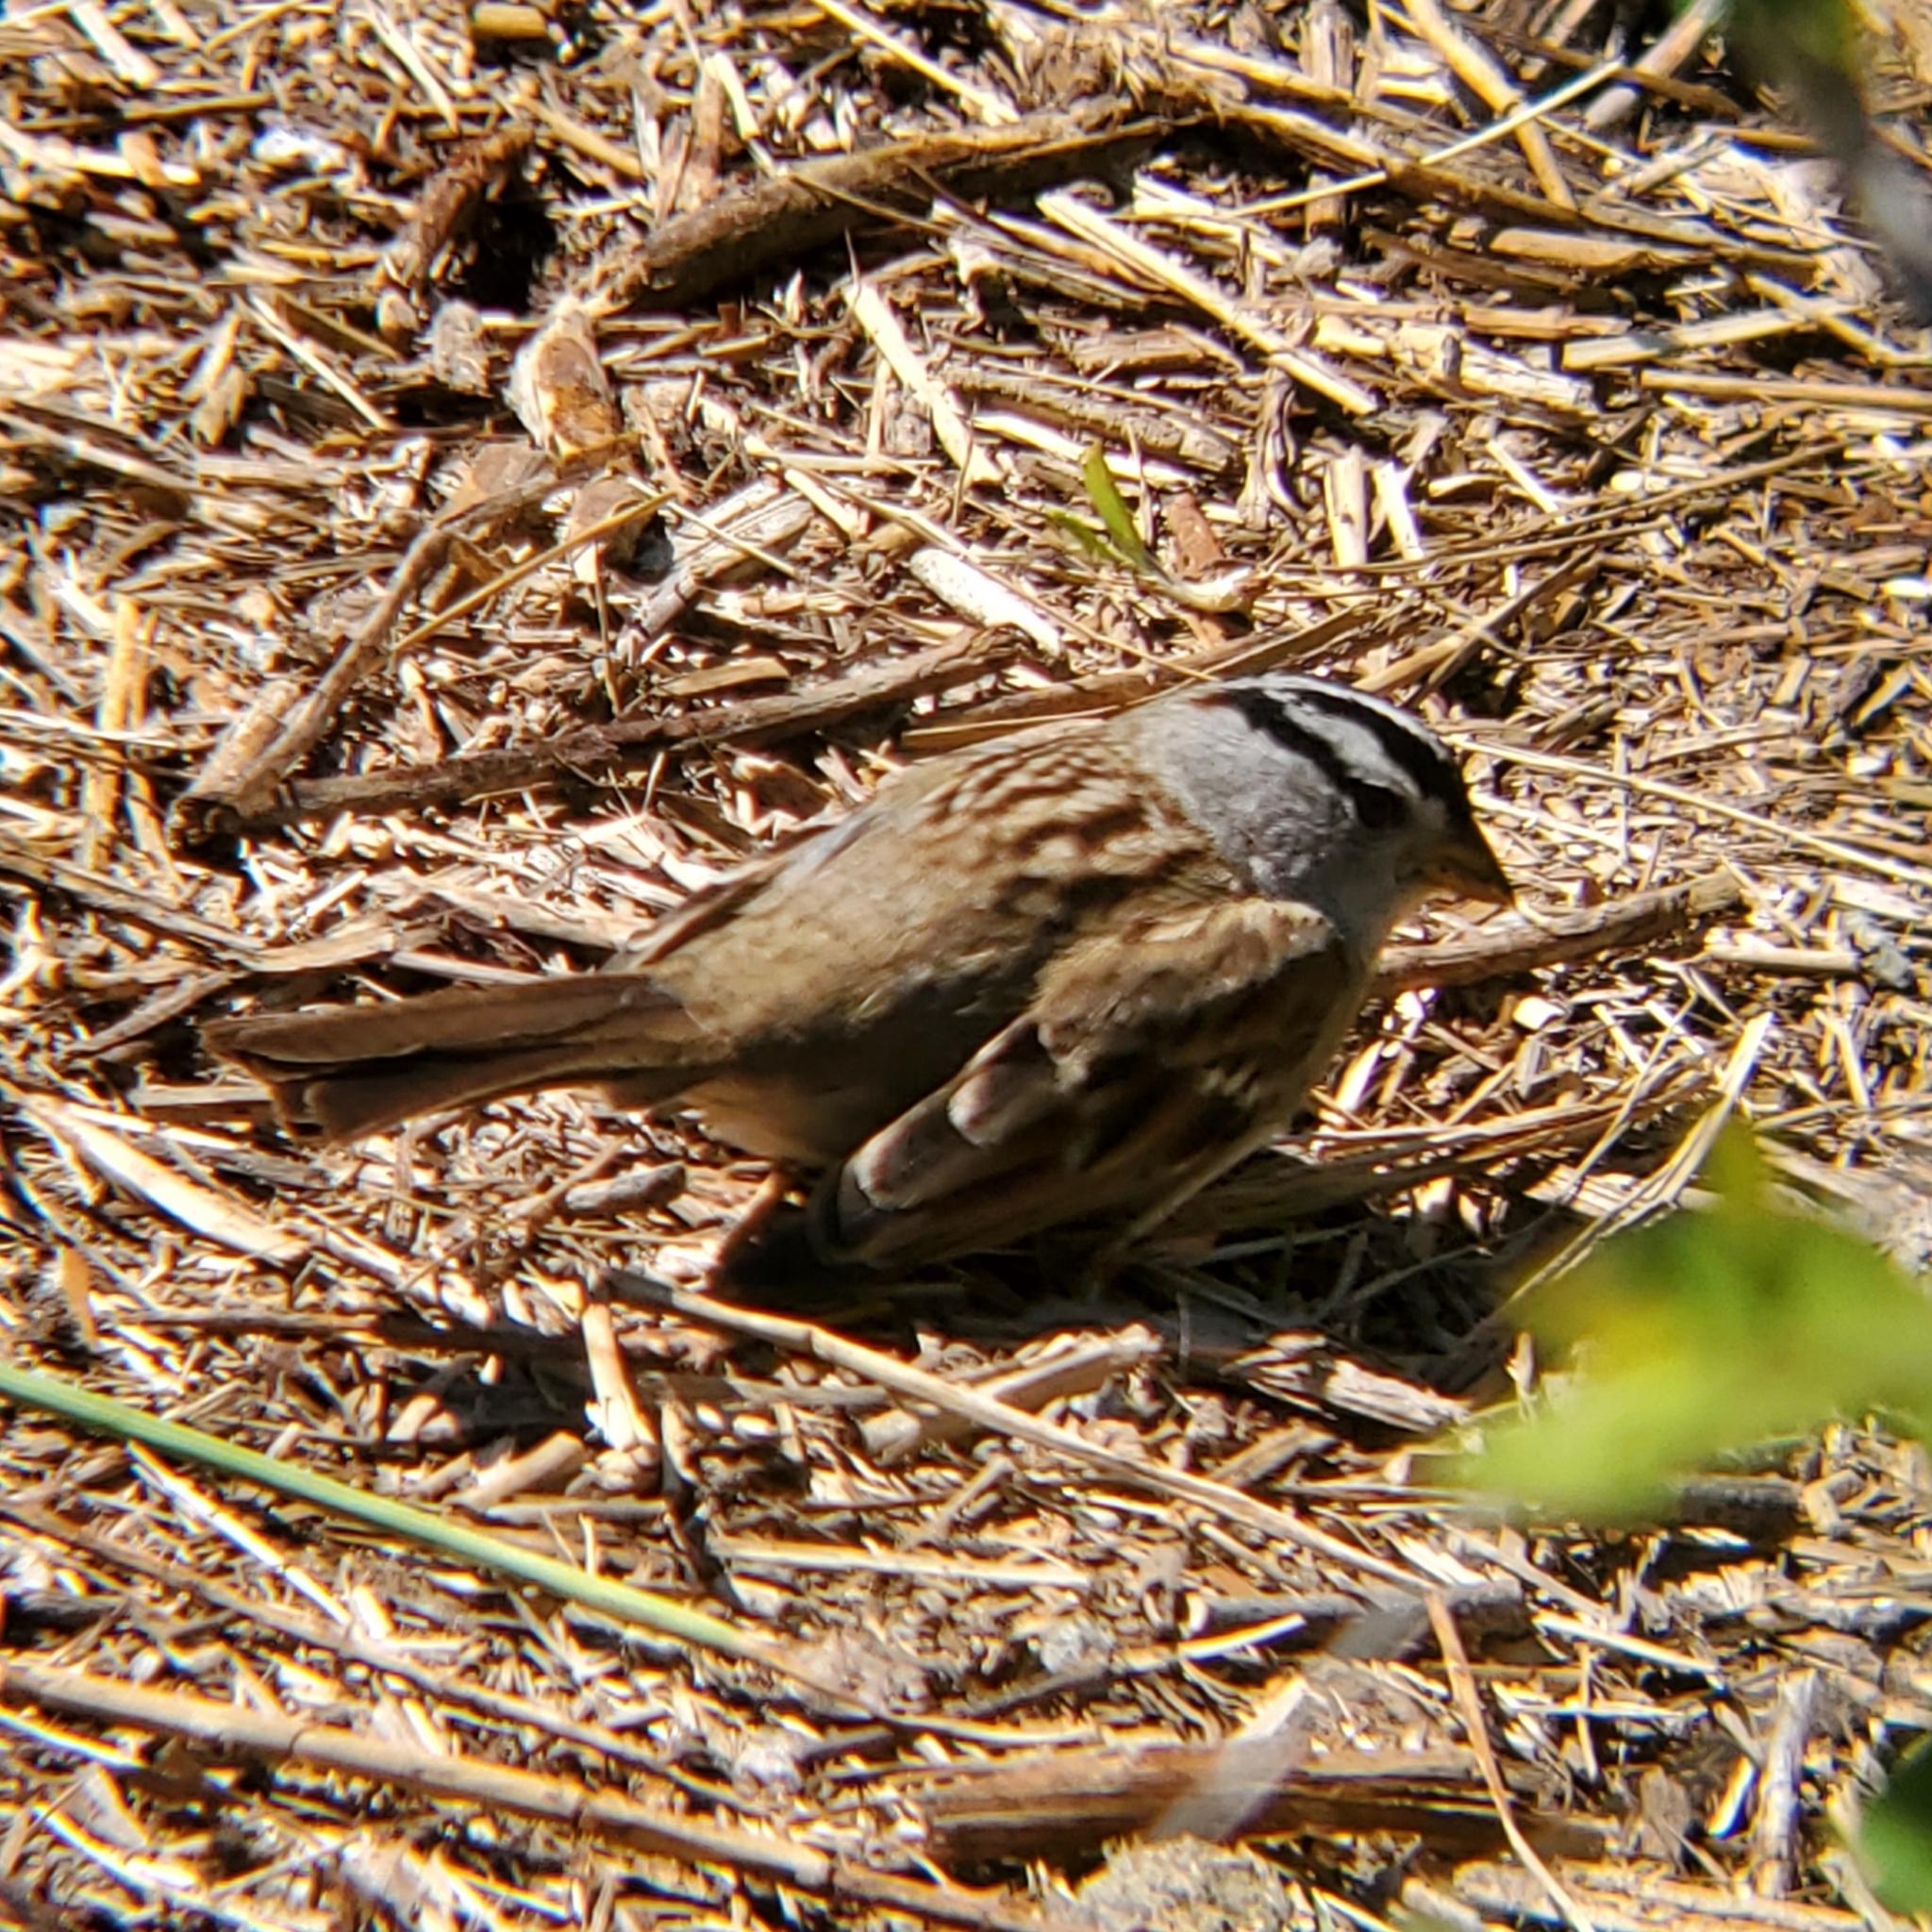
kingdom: Animalia
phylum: Chordata
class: Aves
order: Passeriformes
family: Passerellidae
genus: Zonotrichia
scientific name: Zonotrichia leucophrys
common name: White-crowned sparrow
